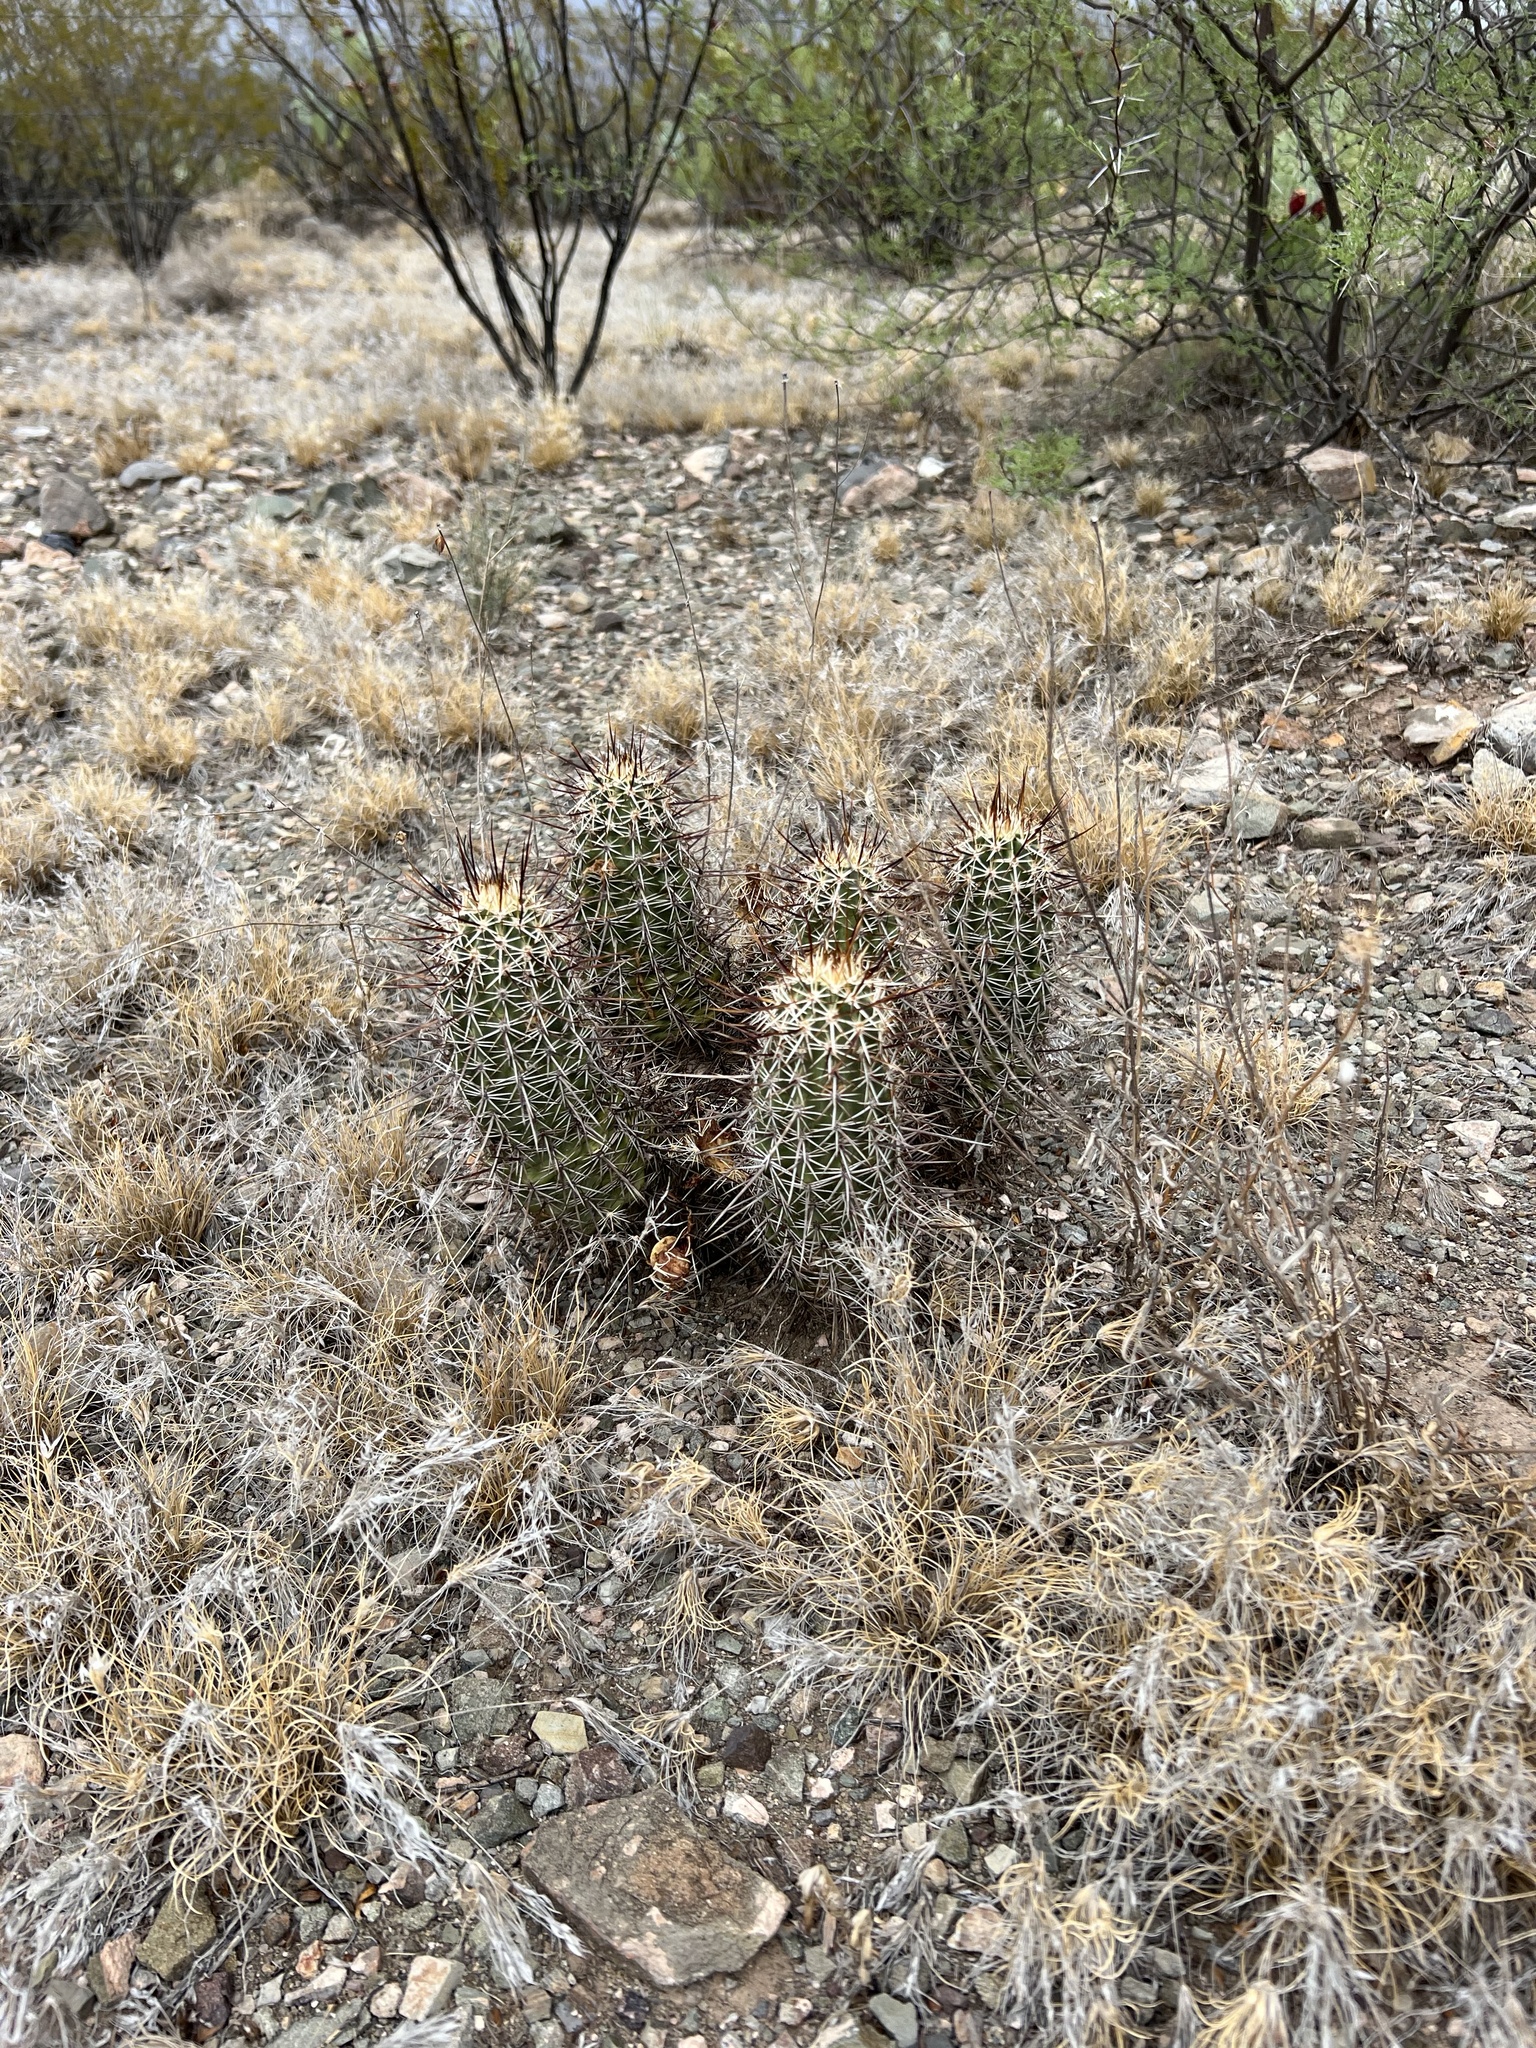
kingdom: Plantae
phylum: Tracheophyta
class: Magnoliopsida
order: Caryophyllales
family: Cactaceae
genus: Echinocereus
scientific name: Echinocereus fasciculatus
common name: Bundle hedgehog
